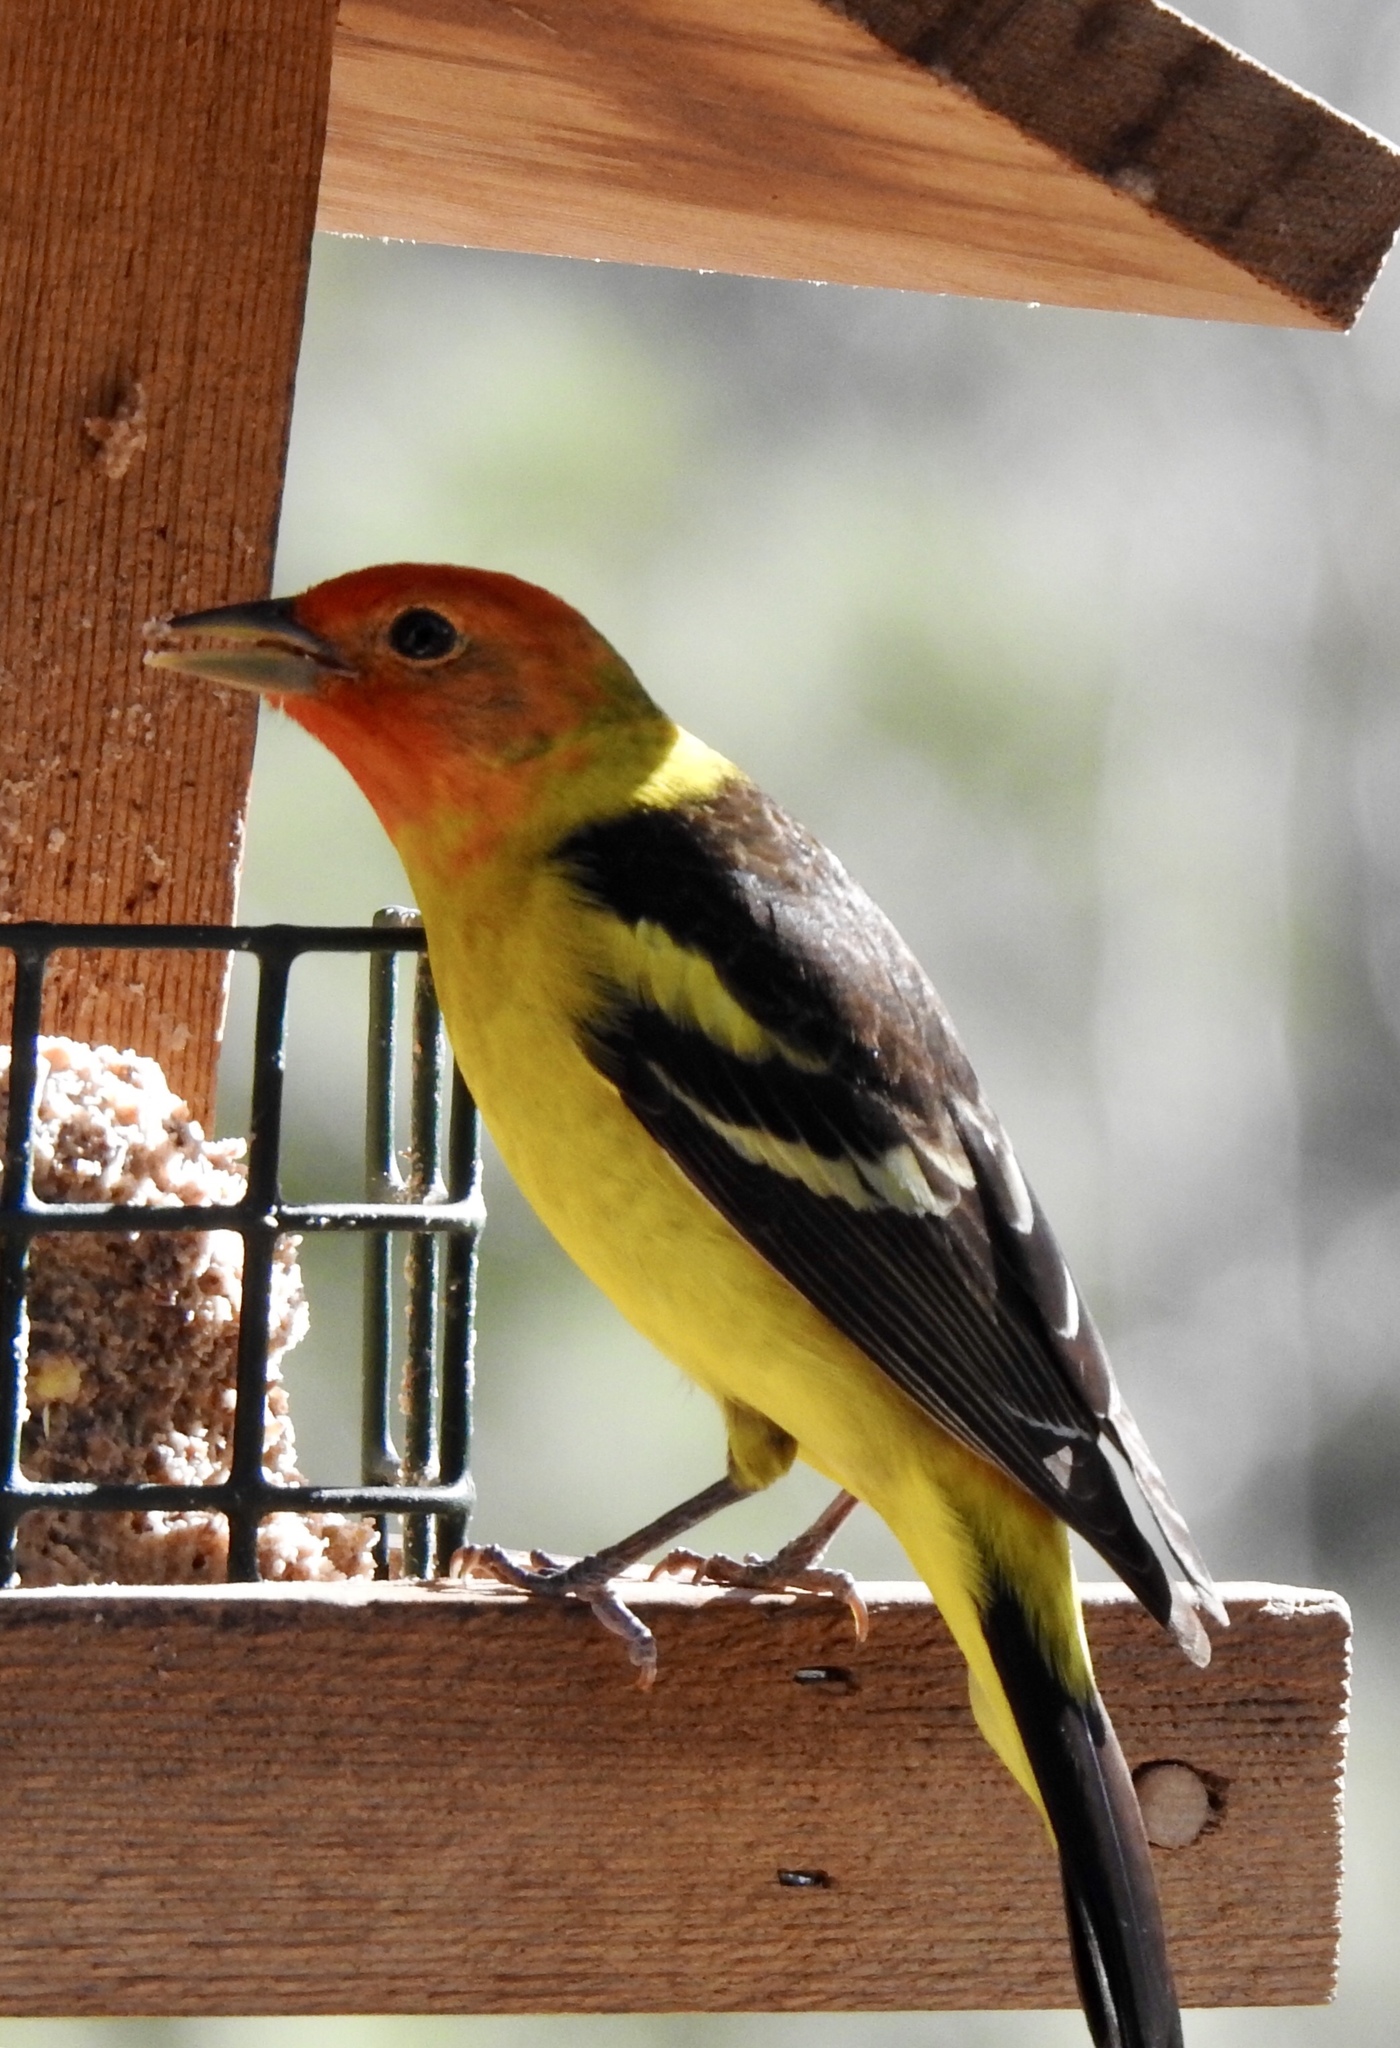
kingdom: Animalia
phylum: Chordata
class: Aves
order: Passeriformes
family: Cardinalidae
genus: Piranga
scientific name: Piranga ludoviciana
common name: Western tanager
